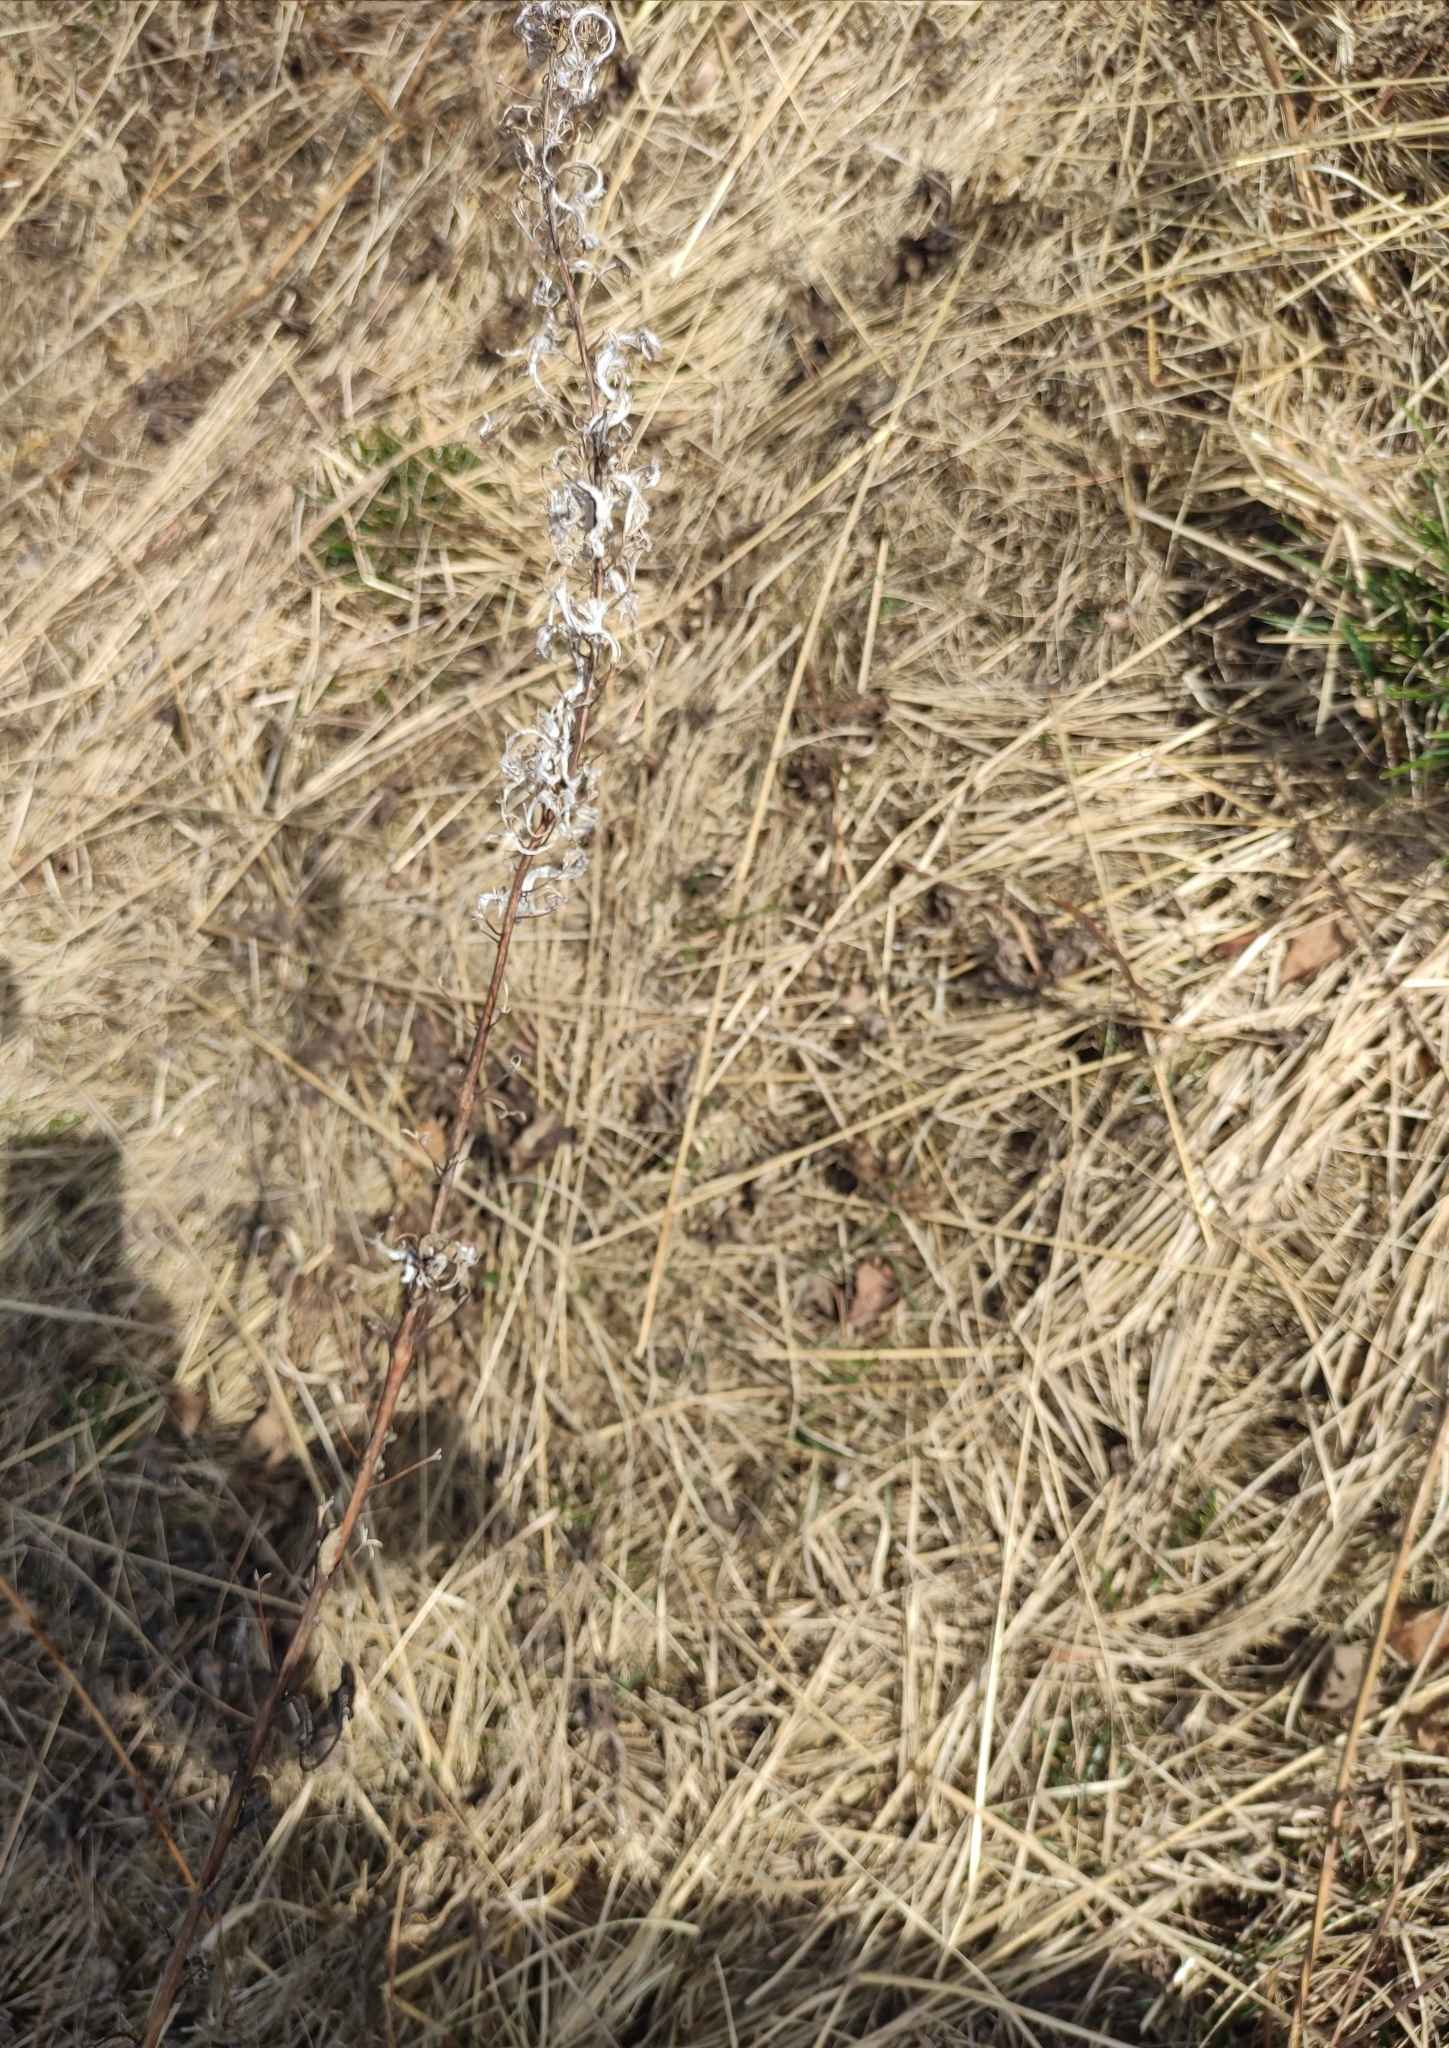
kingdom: Plantae
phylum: Tracheophyta
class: Magnoliopsida
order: Myrtales
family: Onagraceae
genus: Chamaenerion
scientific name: Chamaenerion angustifolium
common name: Fireweed
